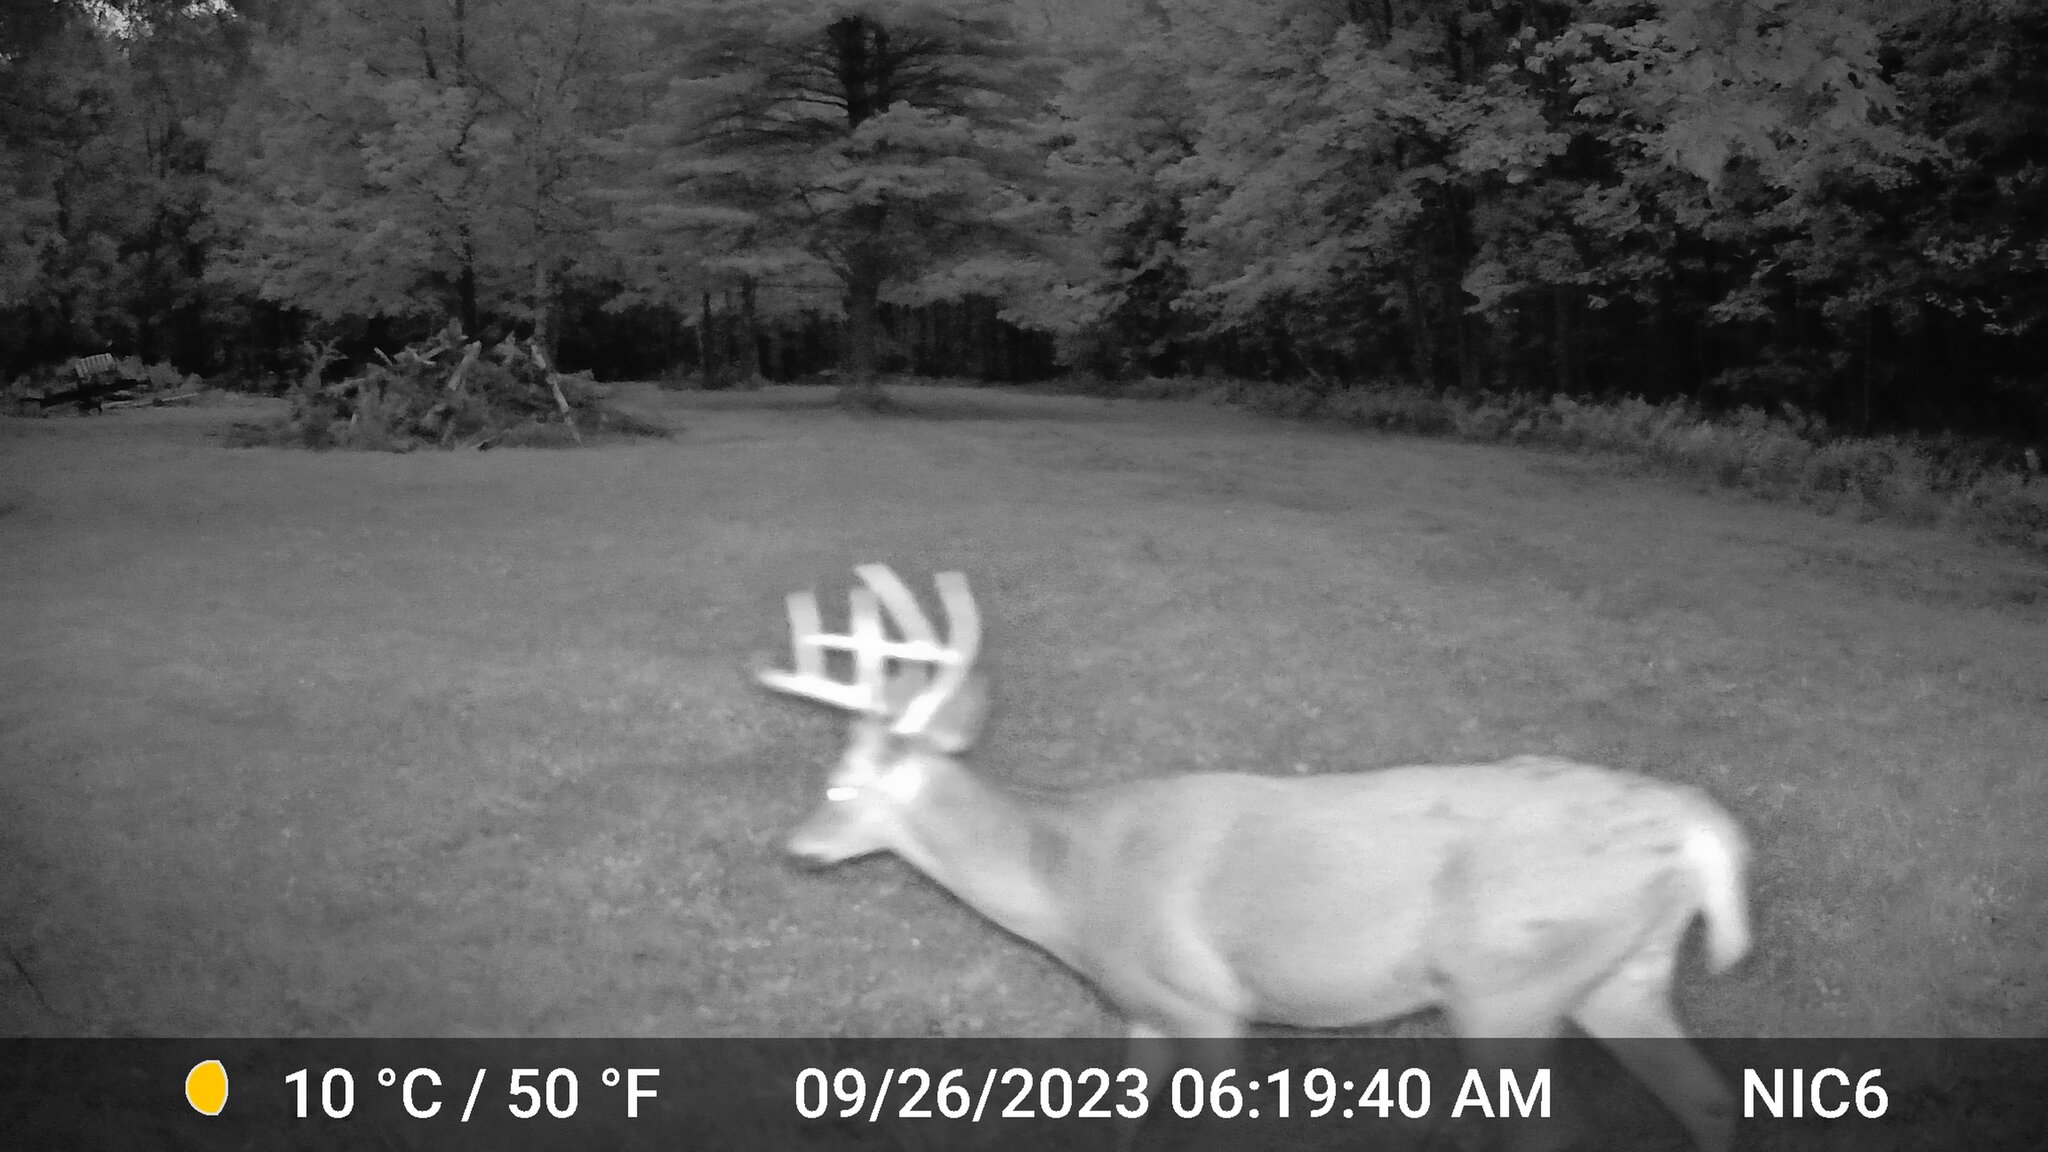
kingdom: Animalia
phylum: Chordata
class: Mammalia
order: Artiodactyla
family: Cervidae
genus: Odocoileus
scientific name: Odocoileus virginianus
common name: White-tailed deer
